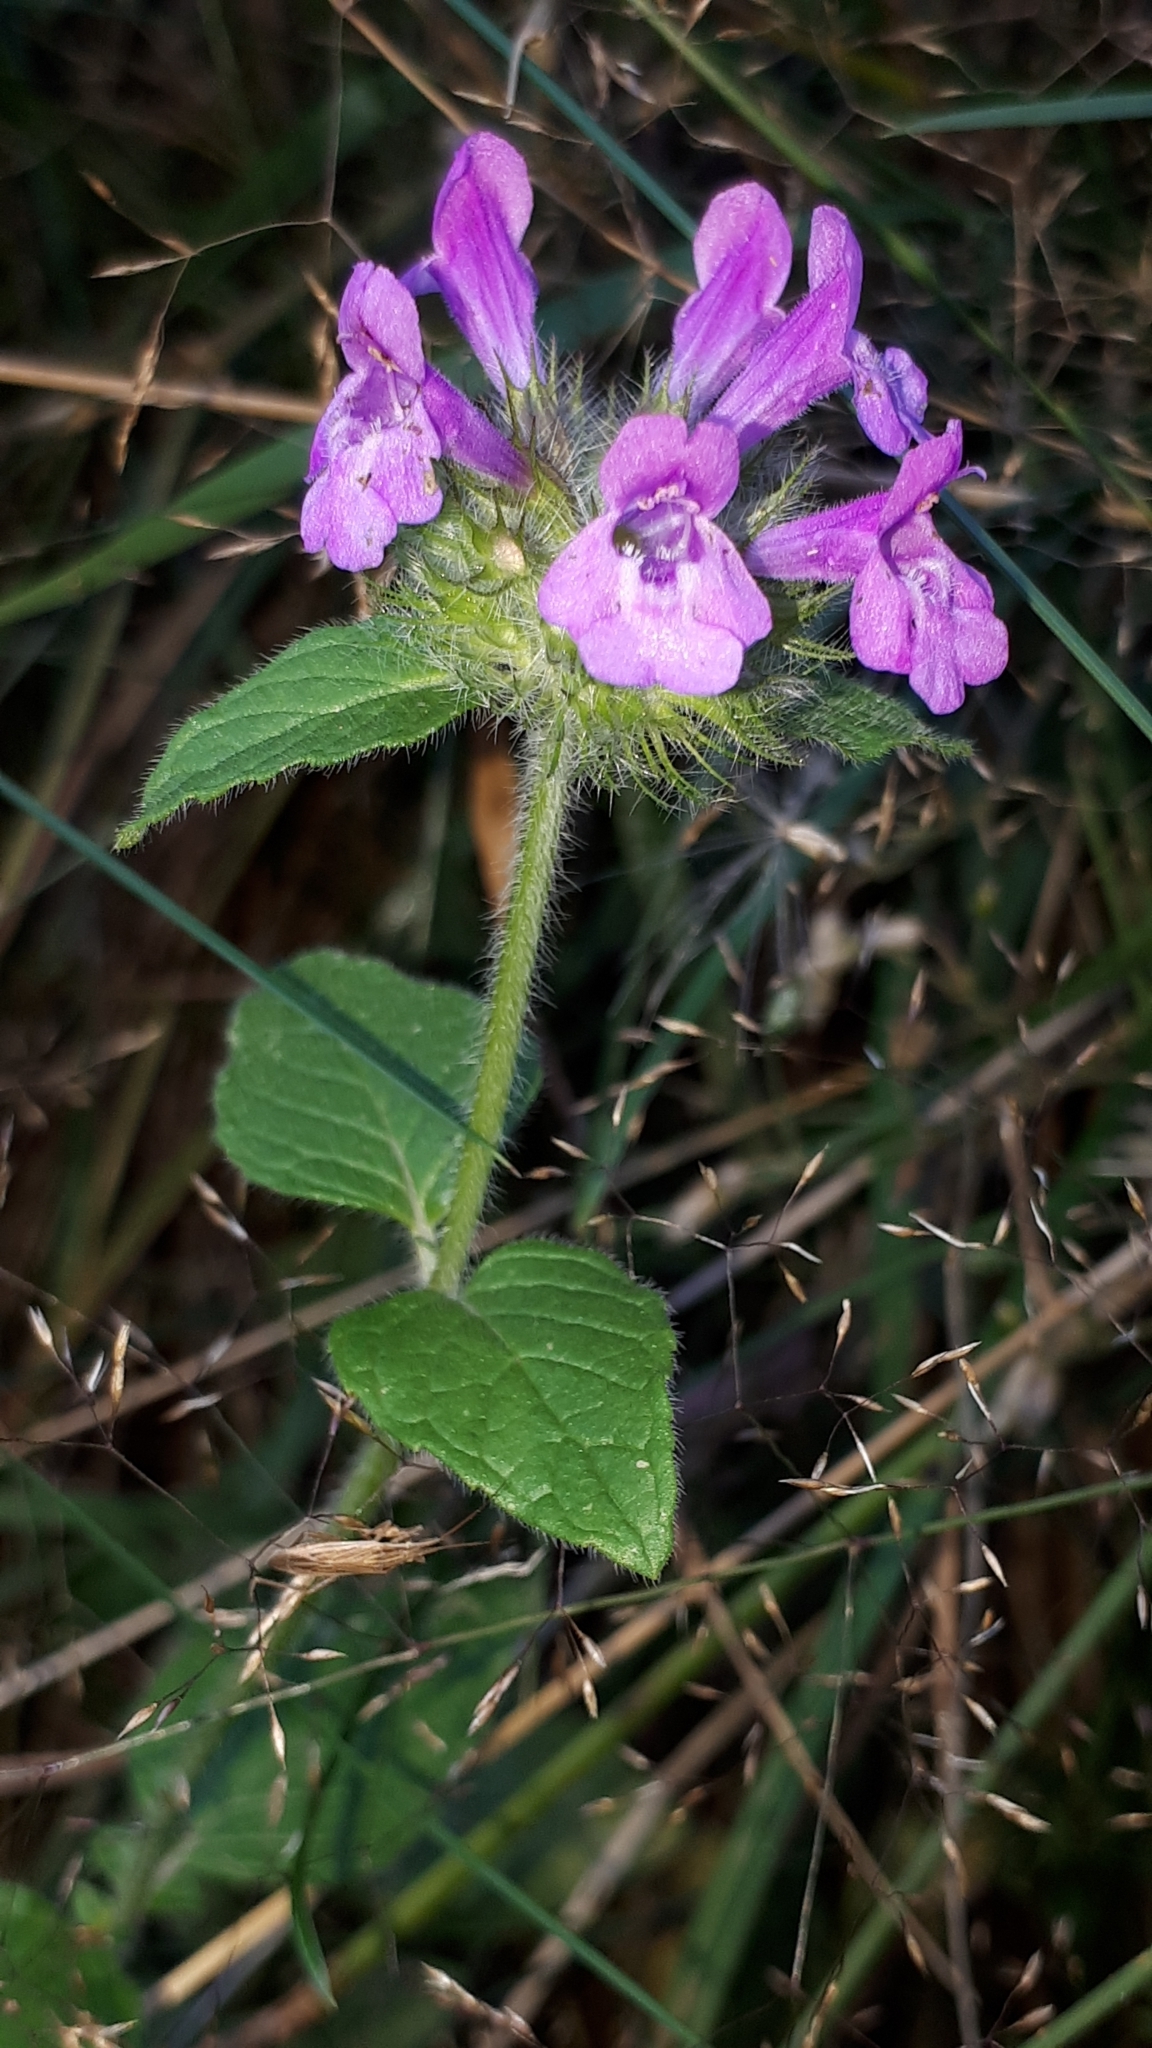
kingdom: Plantae
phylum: Tracheophyta
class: Magnoliopsida
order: Lamiales
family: Lamiaceae
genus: Clinopodium
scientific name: Clinopodium vulgare
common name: Wild basil
